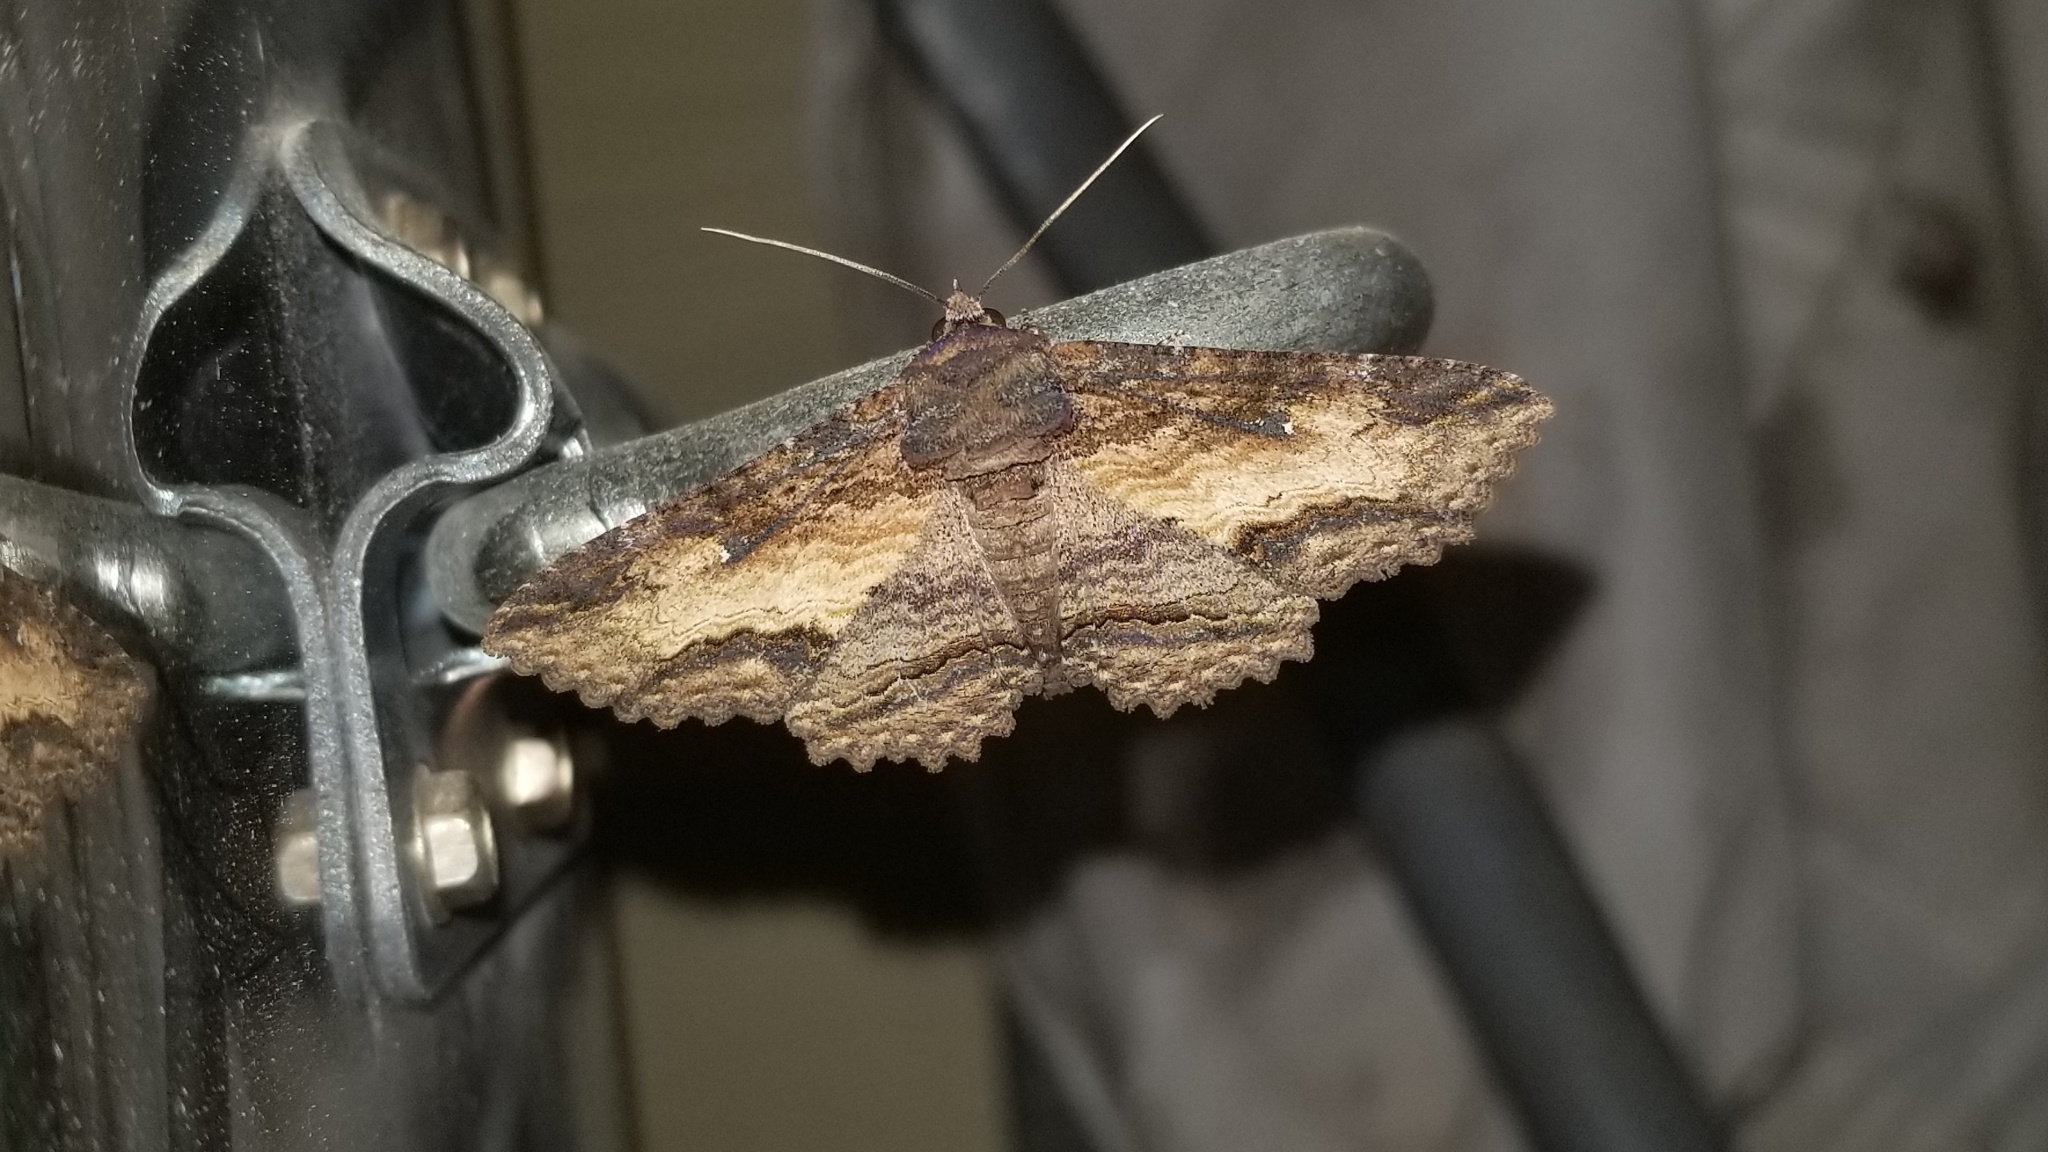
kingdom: Animalia
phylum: Arthropoda
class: Insecta
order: Lepidoptera
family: Erebidae
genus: Zale
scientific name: Zale lunata
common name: Lunate zale moth
